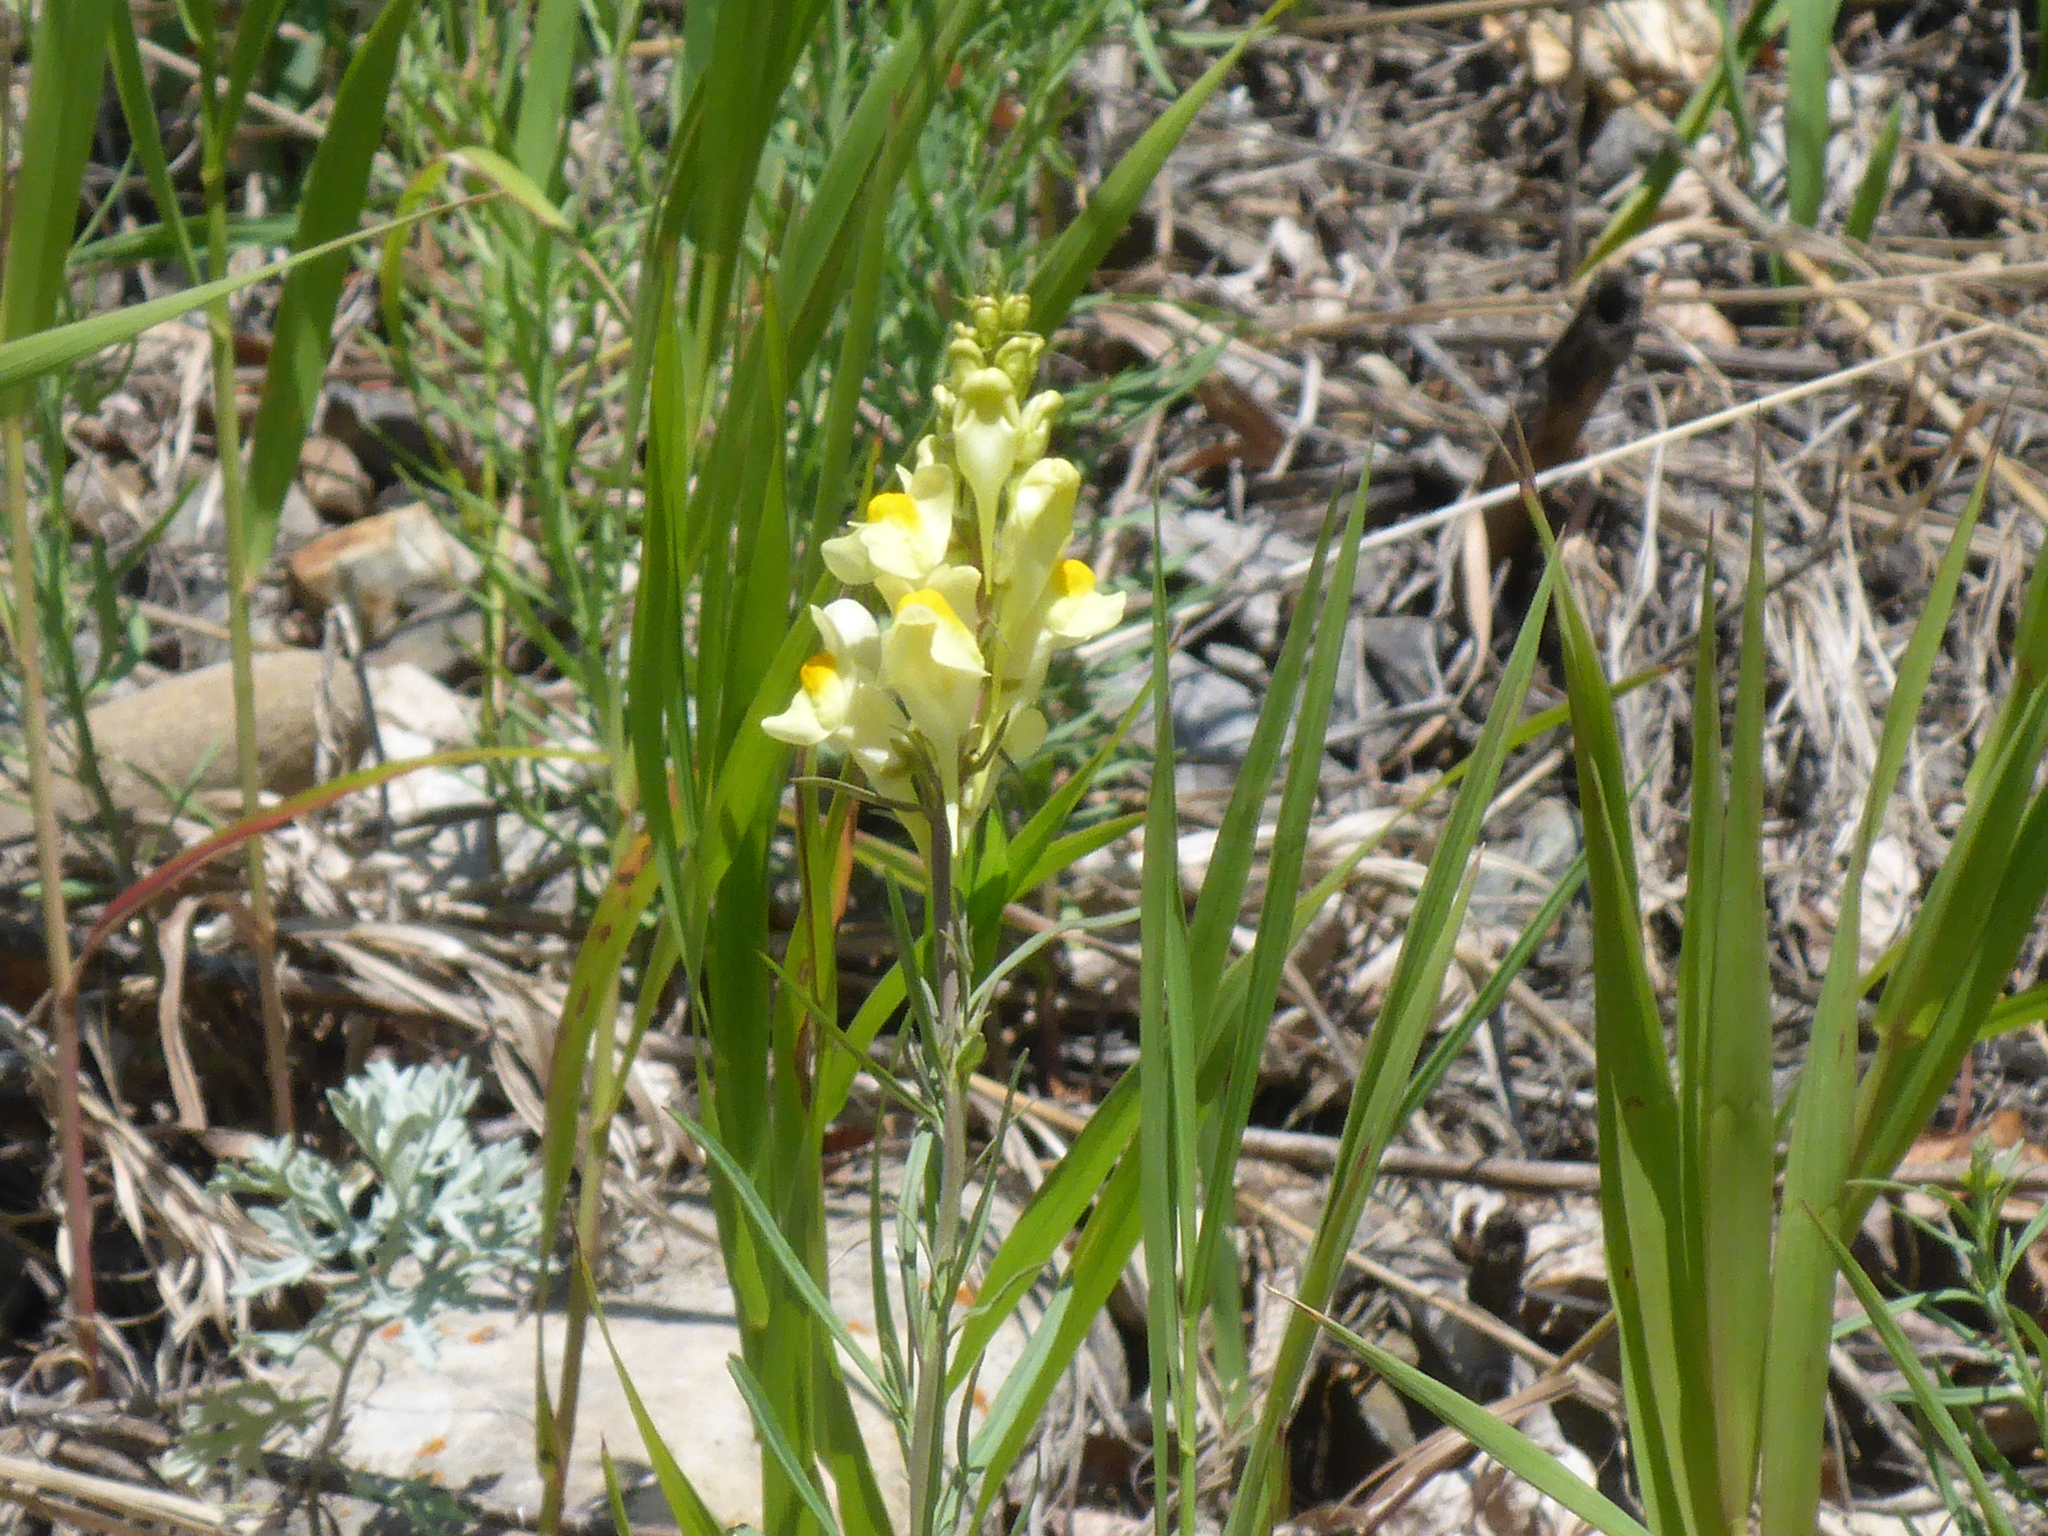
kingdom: Plantae
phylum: Tracheophyta
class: Magnoliopsida
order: Lamiales
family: Plantaginaceae
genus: Linaria
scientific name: Linaria vulgaris
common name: Butter and eggs
